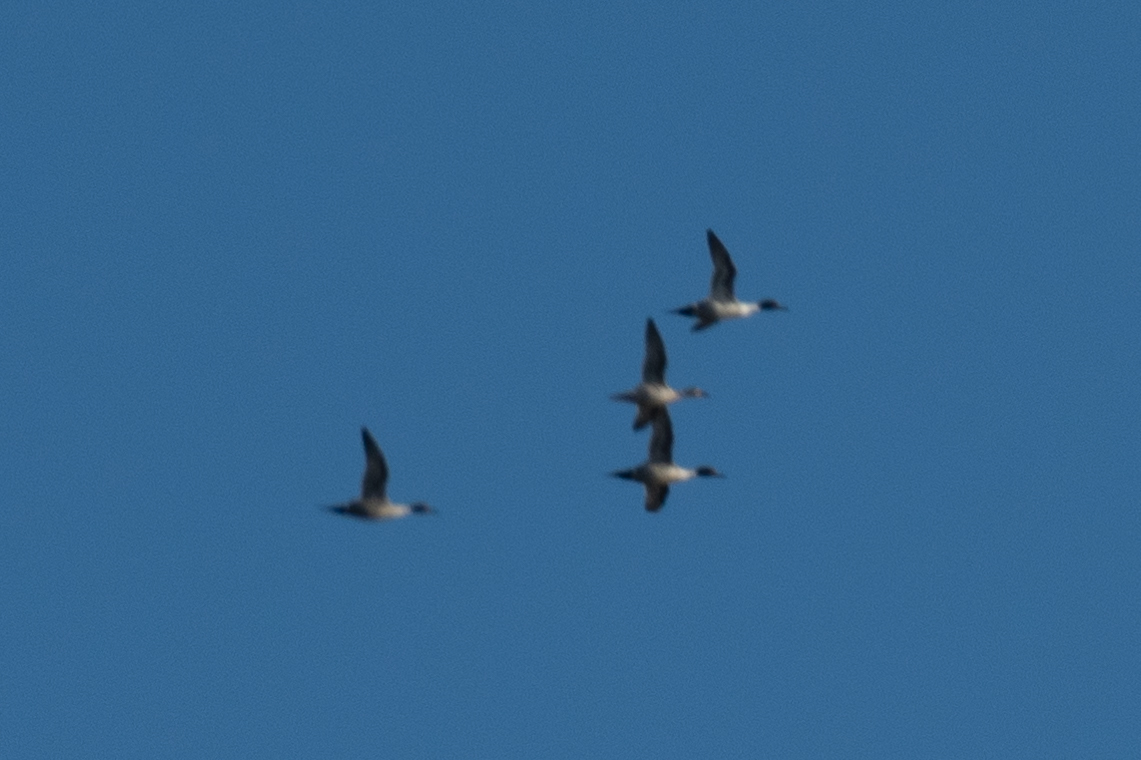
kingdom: Animalia
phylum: Chordata
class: Aves
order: Anseriformes
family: Anatidae
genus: Anas
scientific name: Anas acuta
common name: Northern pintail
